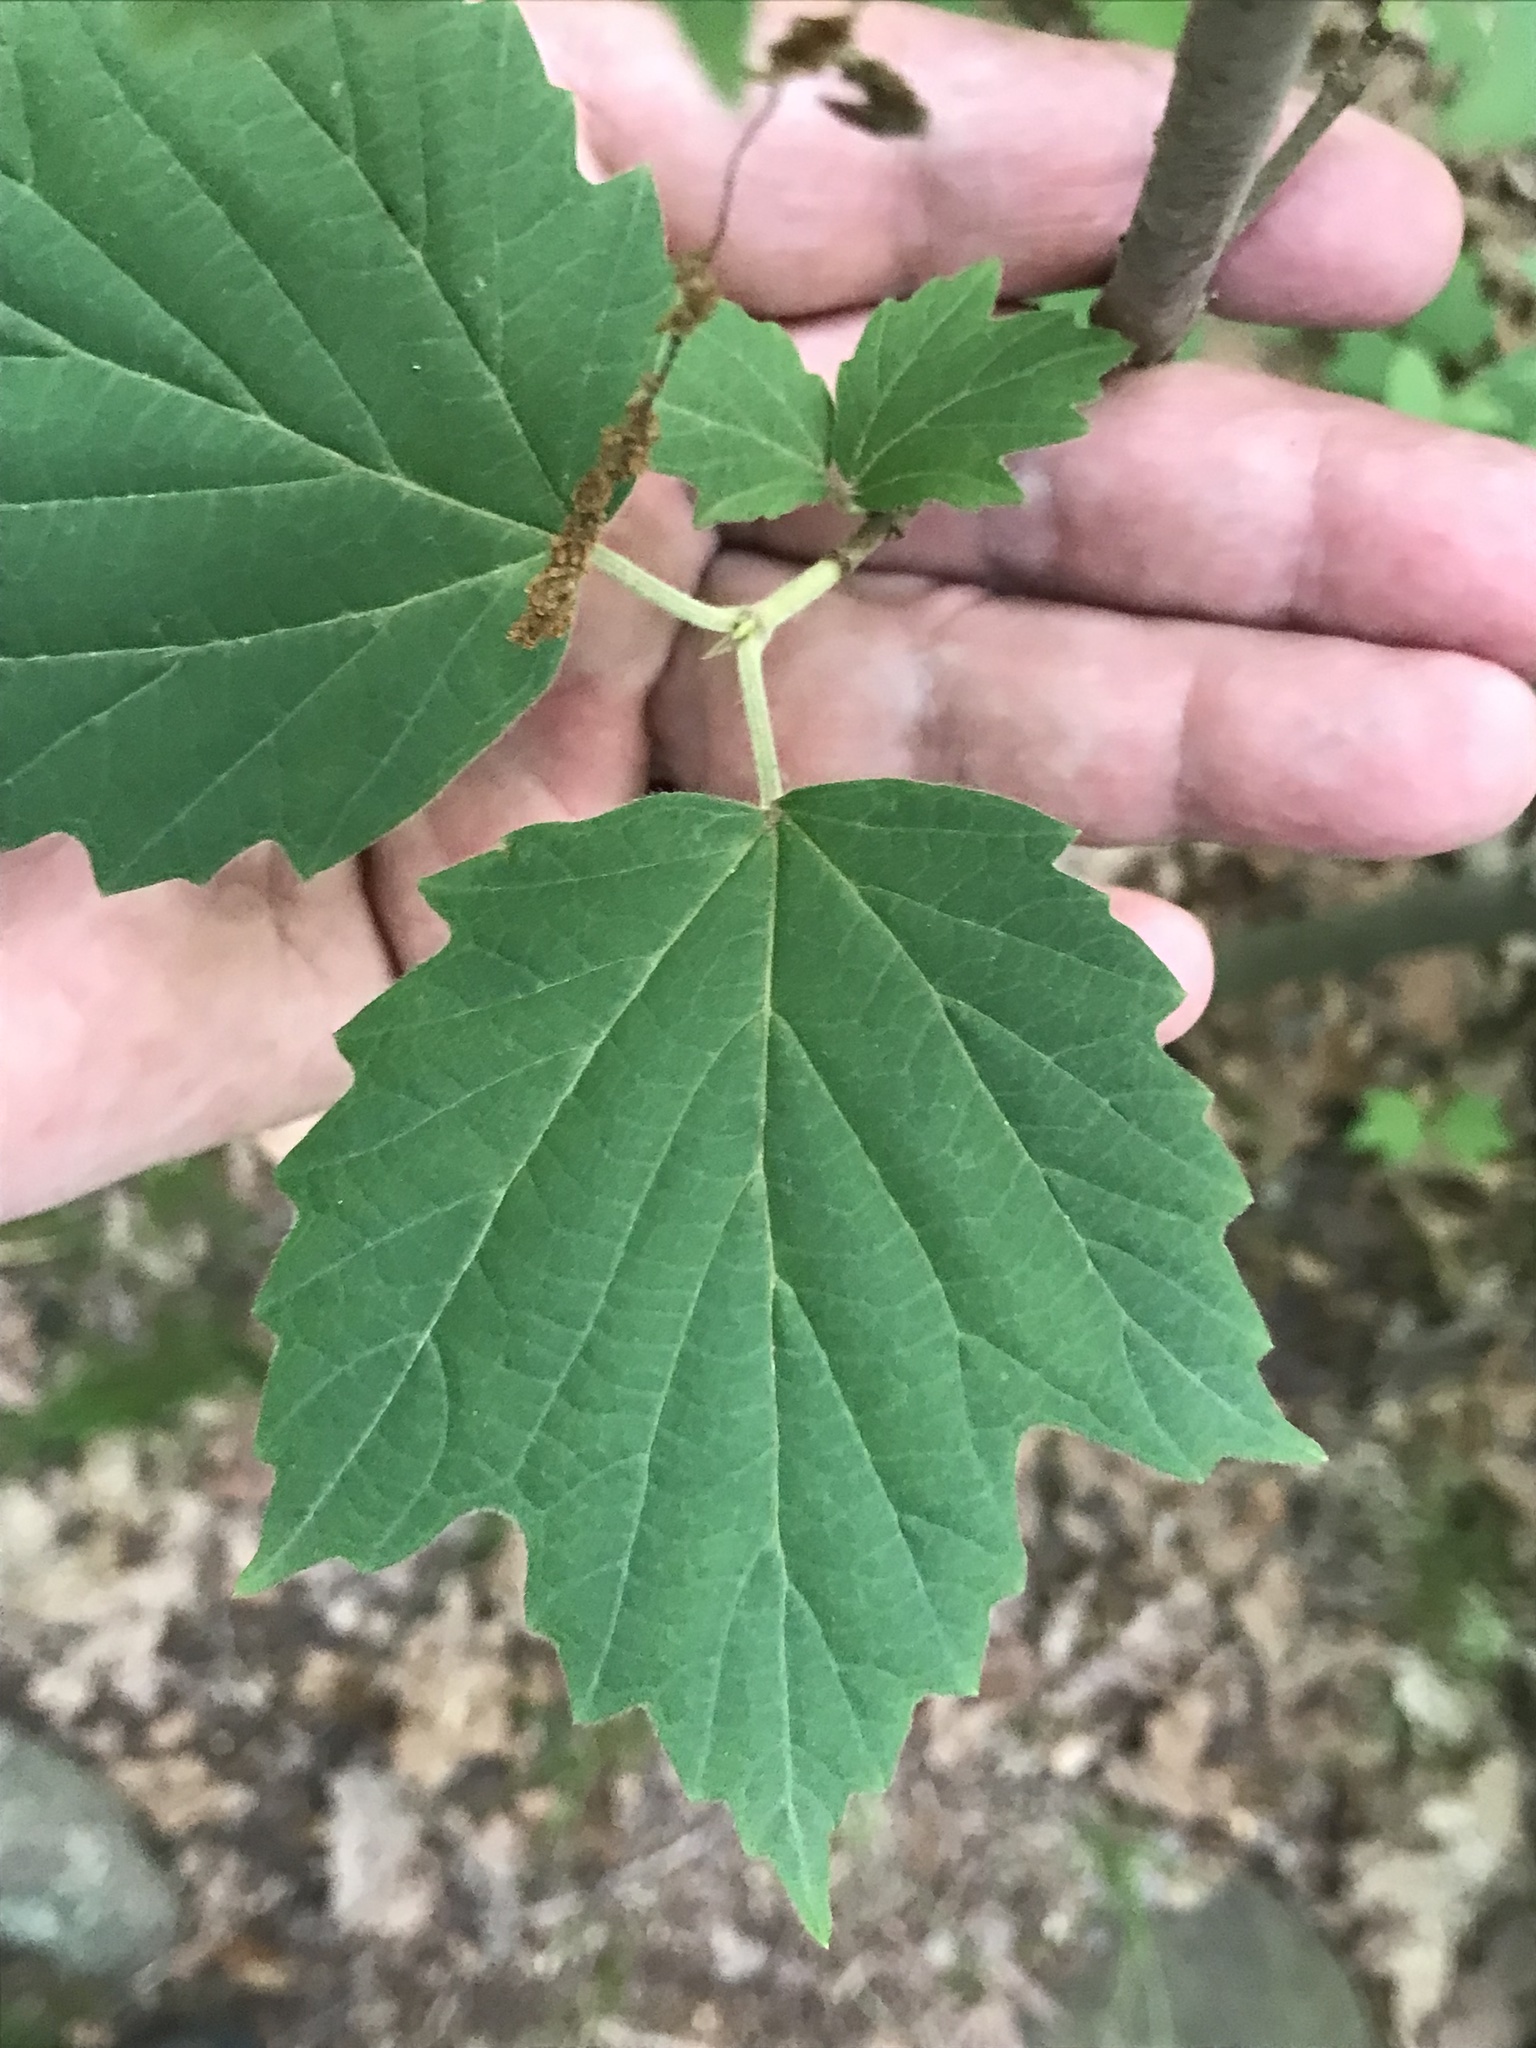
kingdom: Plantae
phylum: Tracheophyta
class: Magnoliopsida
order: Dipsacales
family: Viburnaceae
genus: Viburnum
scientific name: Viburnum acerifolium
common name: Dockmackie
